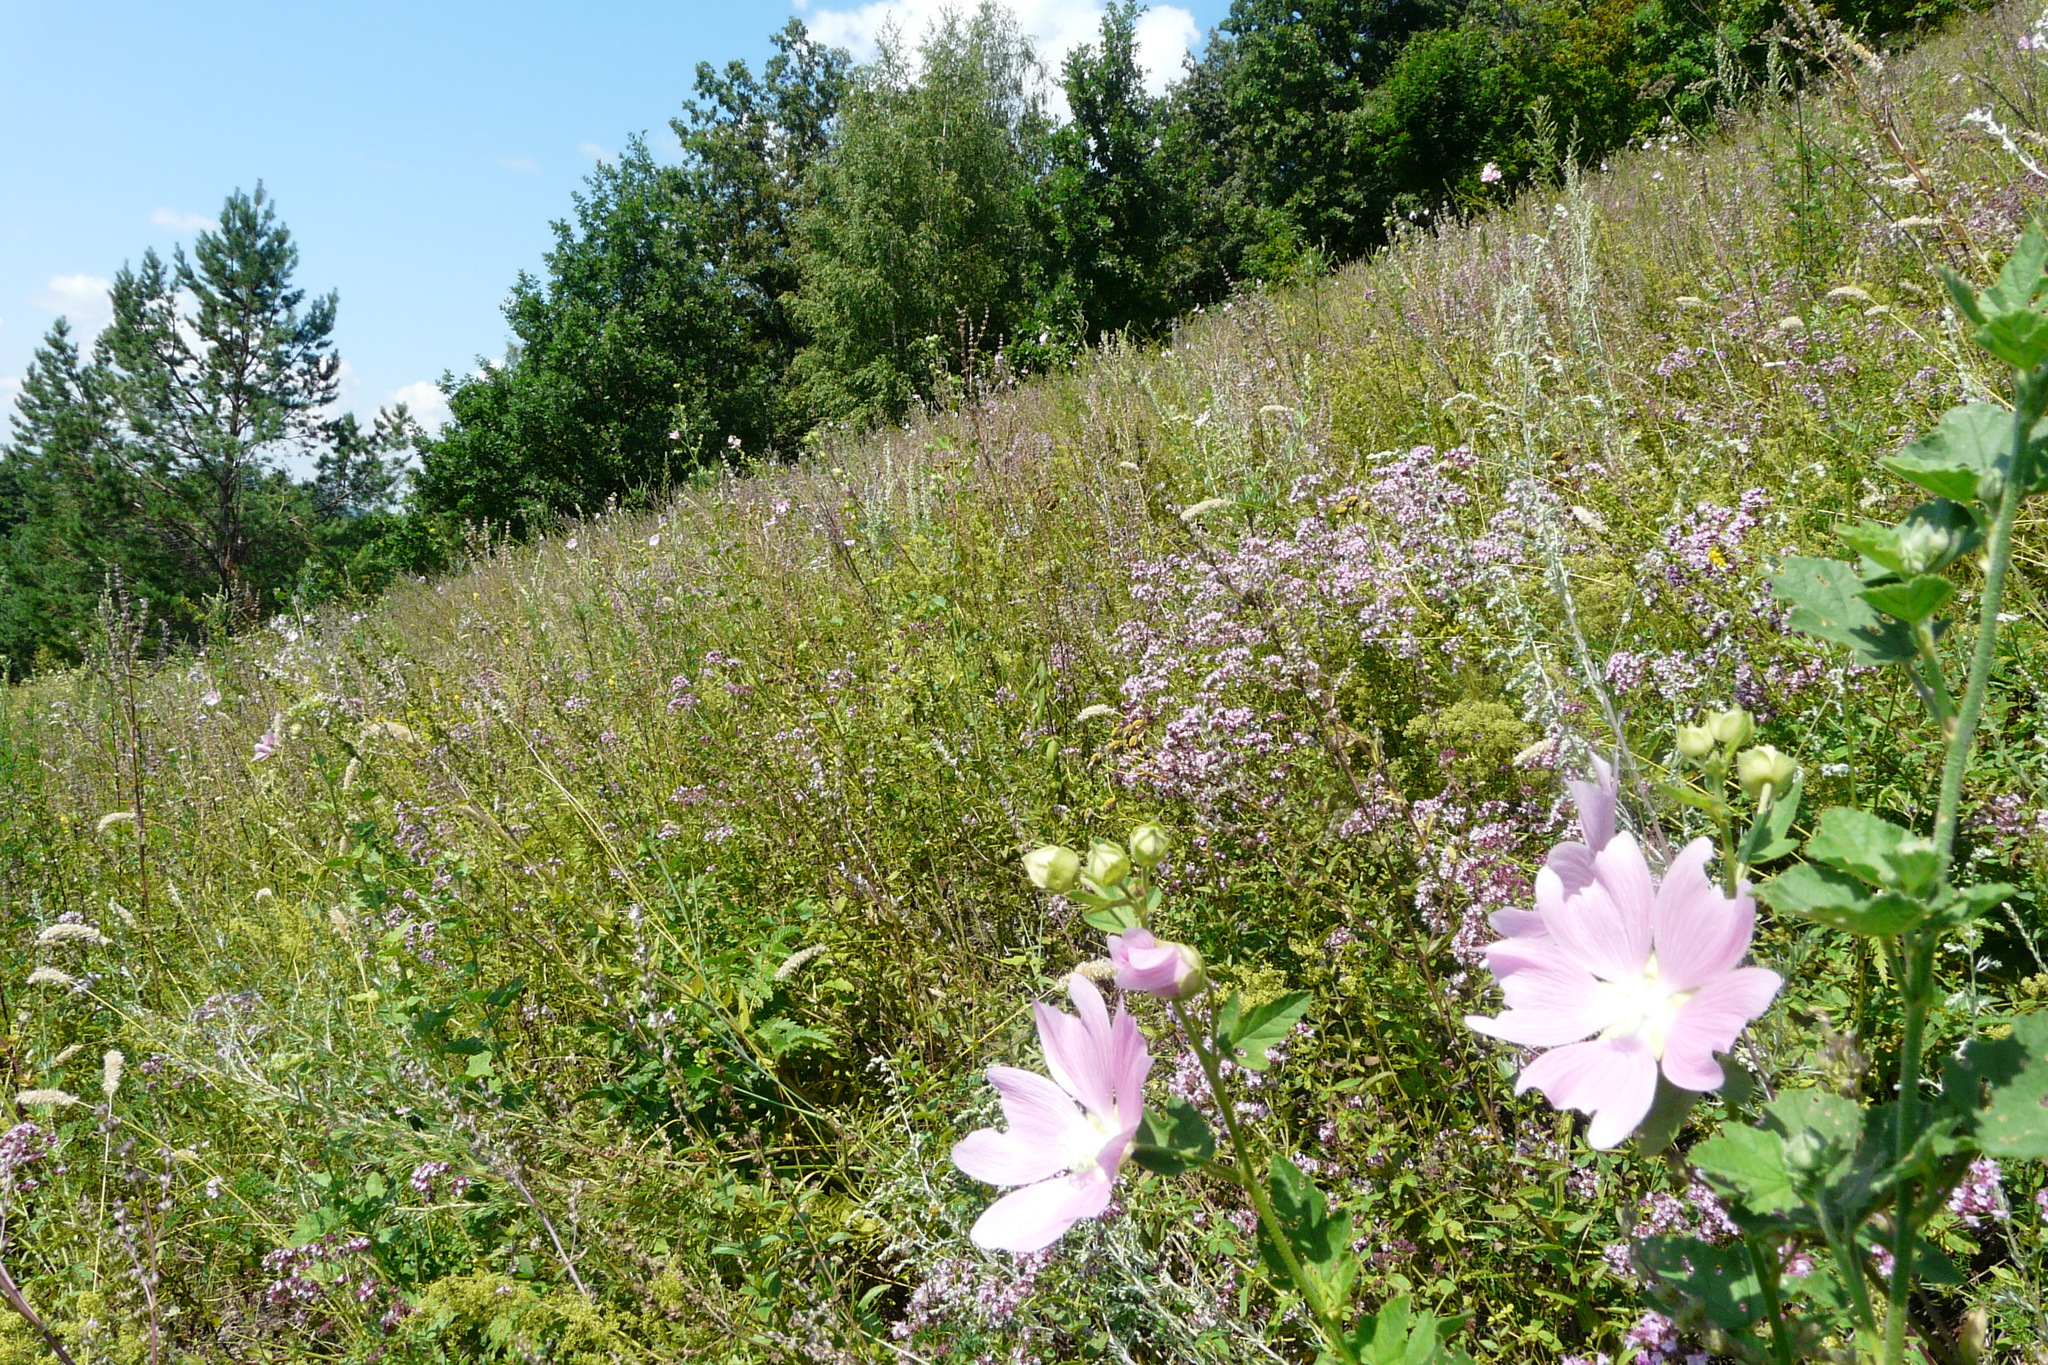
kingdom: Plantae
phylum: Tracheophyta
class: Magnoliopsida
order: Malvales
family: Malvaceae
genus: Malva
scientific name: Malva thuringiaca
